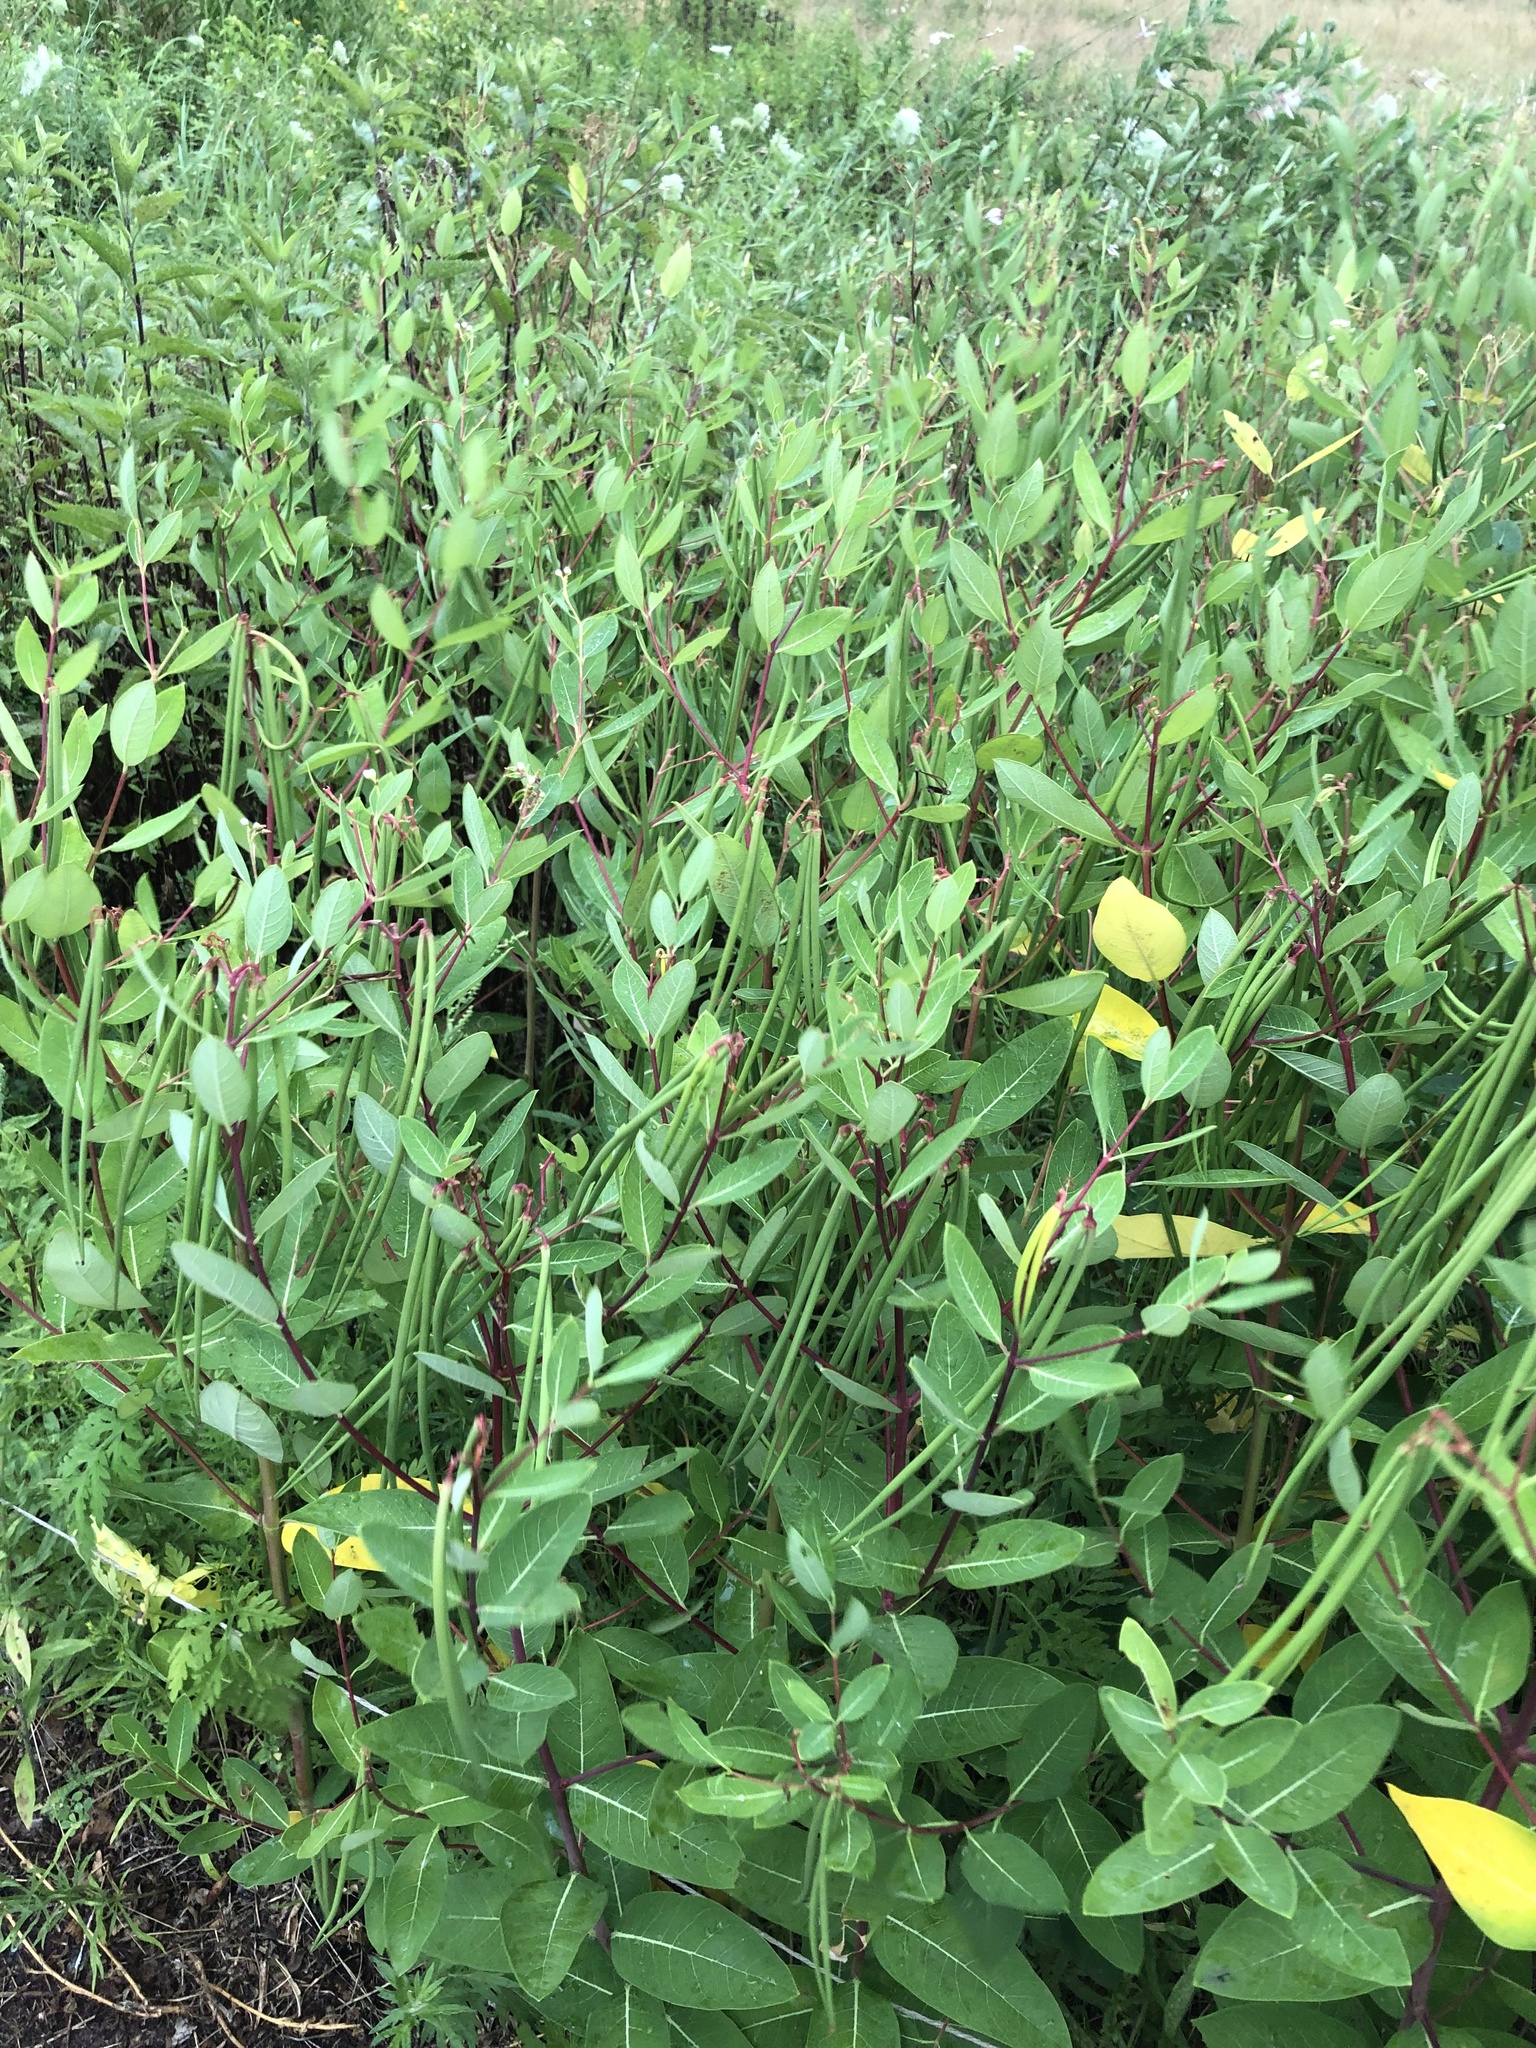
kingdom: Plantae
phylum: Tracheophyta
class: Magnoliopsida
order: Gentianales
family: Apocynaceae
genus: Apocynum
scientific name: Apocynum cannabinum
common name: Hemp dogbane
